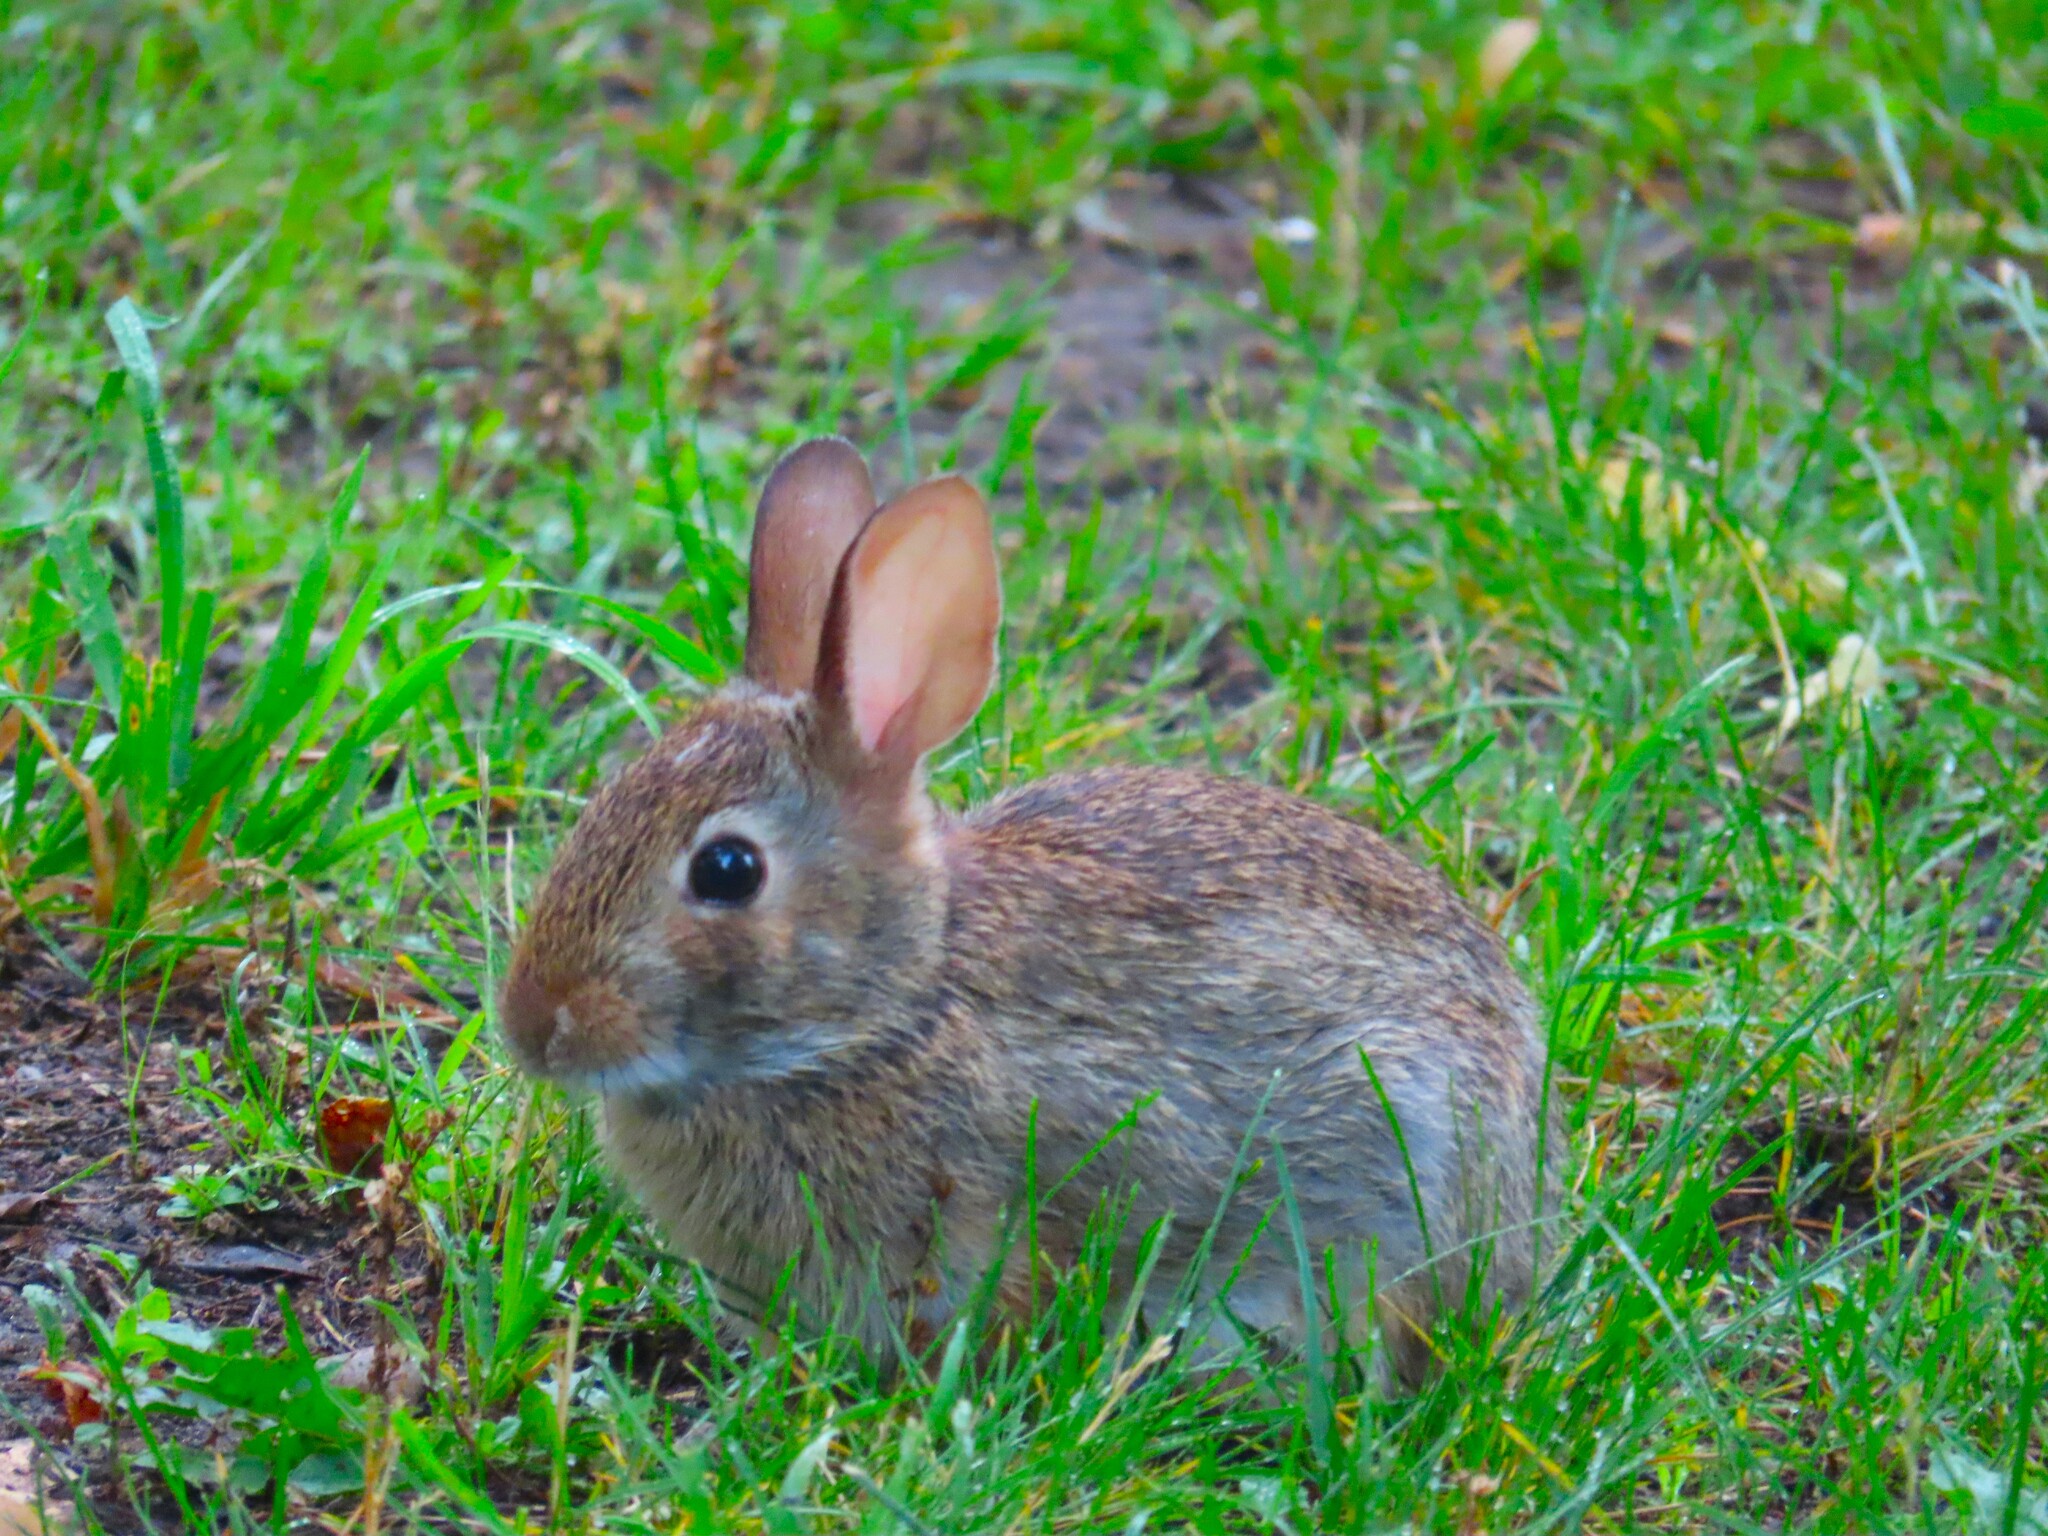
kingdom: Animalia
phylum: Chordata
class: Mammalia
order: Lagomorpha
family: Leporidae
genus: Sylvilagus
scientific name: Sylvilagus floridanus
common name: Eastern cottontail
